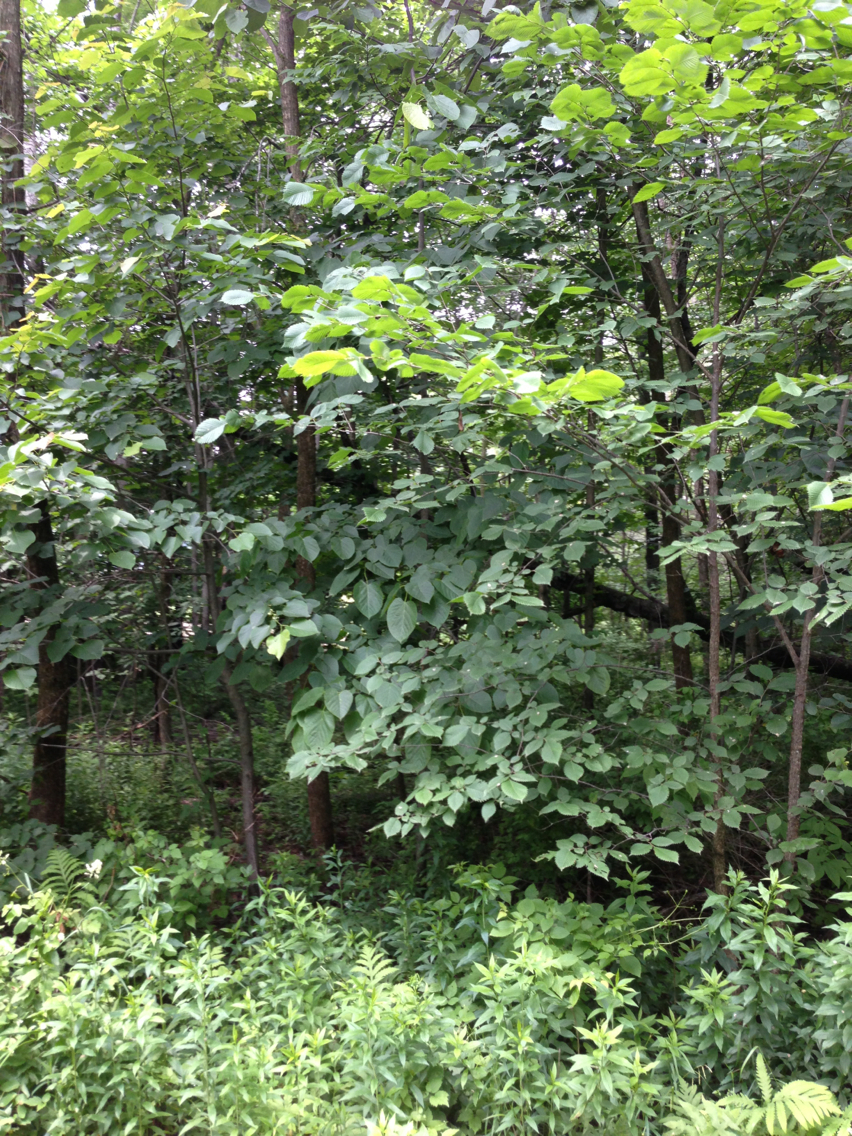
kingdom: Plantae
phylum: Tracheophyta
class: Magnoliopsida
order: Malvales
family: Malvaceae
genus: Tilia
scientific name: Tilia americana
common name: Basswood
